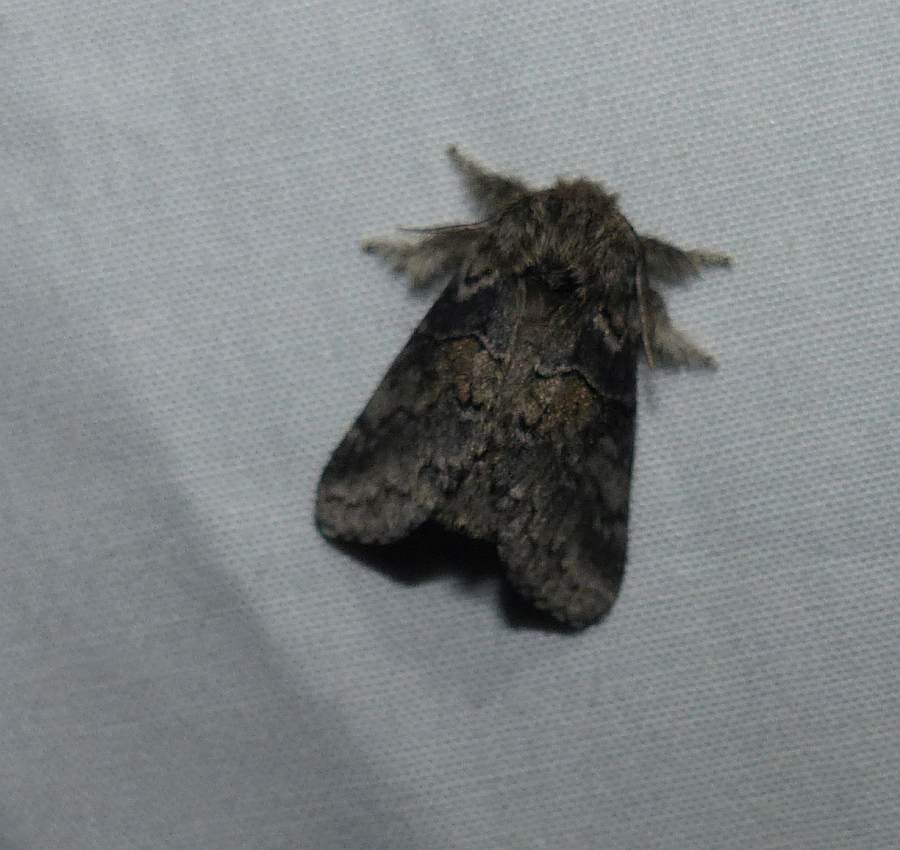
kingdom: Animalia
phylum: Arthropoda
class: Insecta
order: Lepidoptera
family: Notodontidae
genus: Gluphisia
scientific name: Gluphisia septentrionis
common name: Common gluphisia
